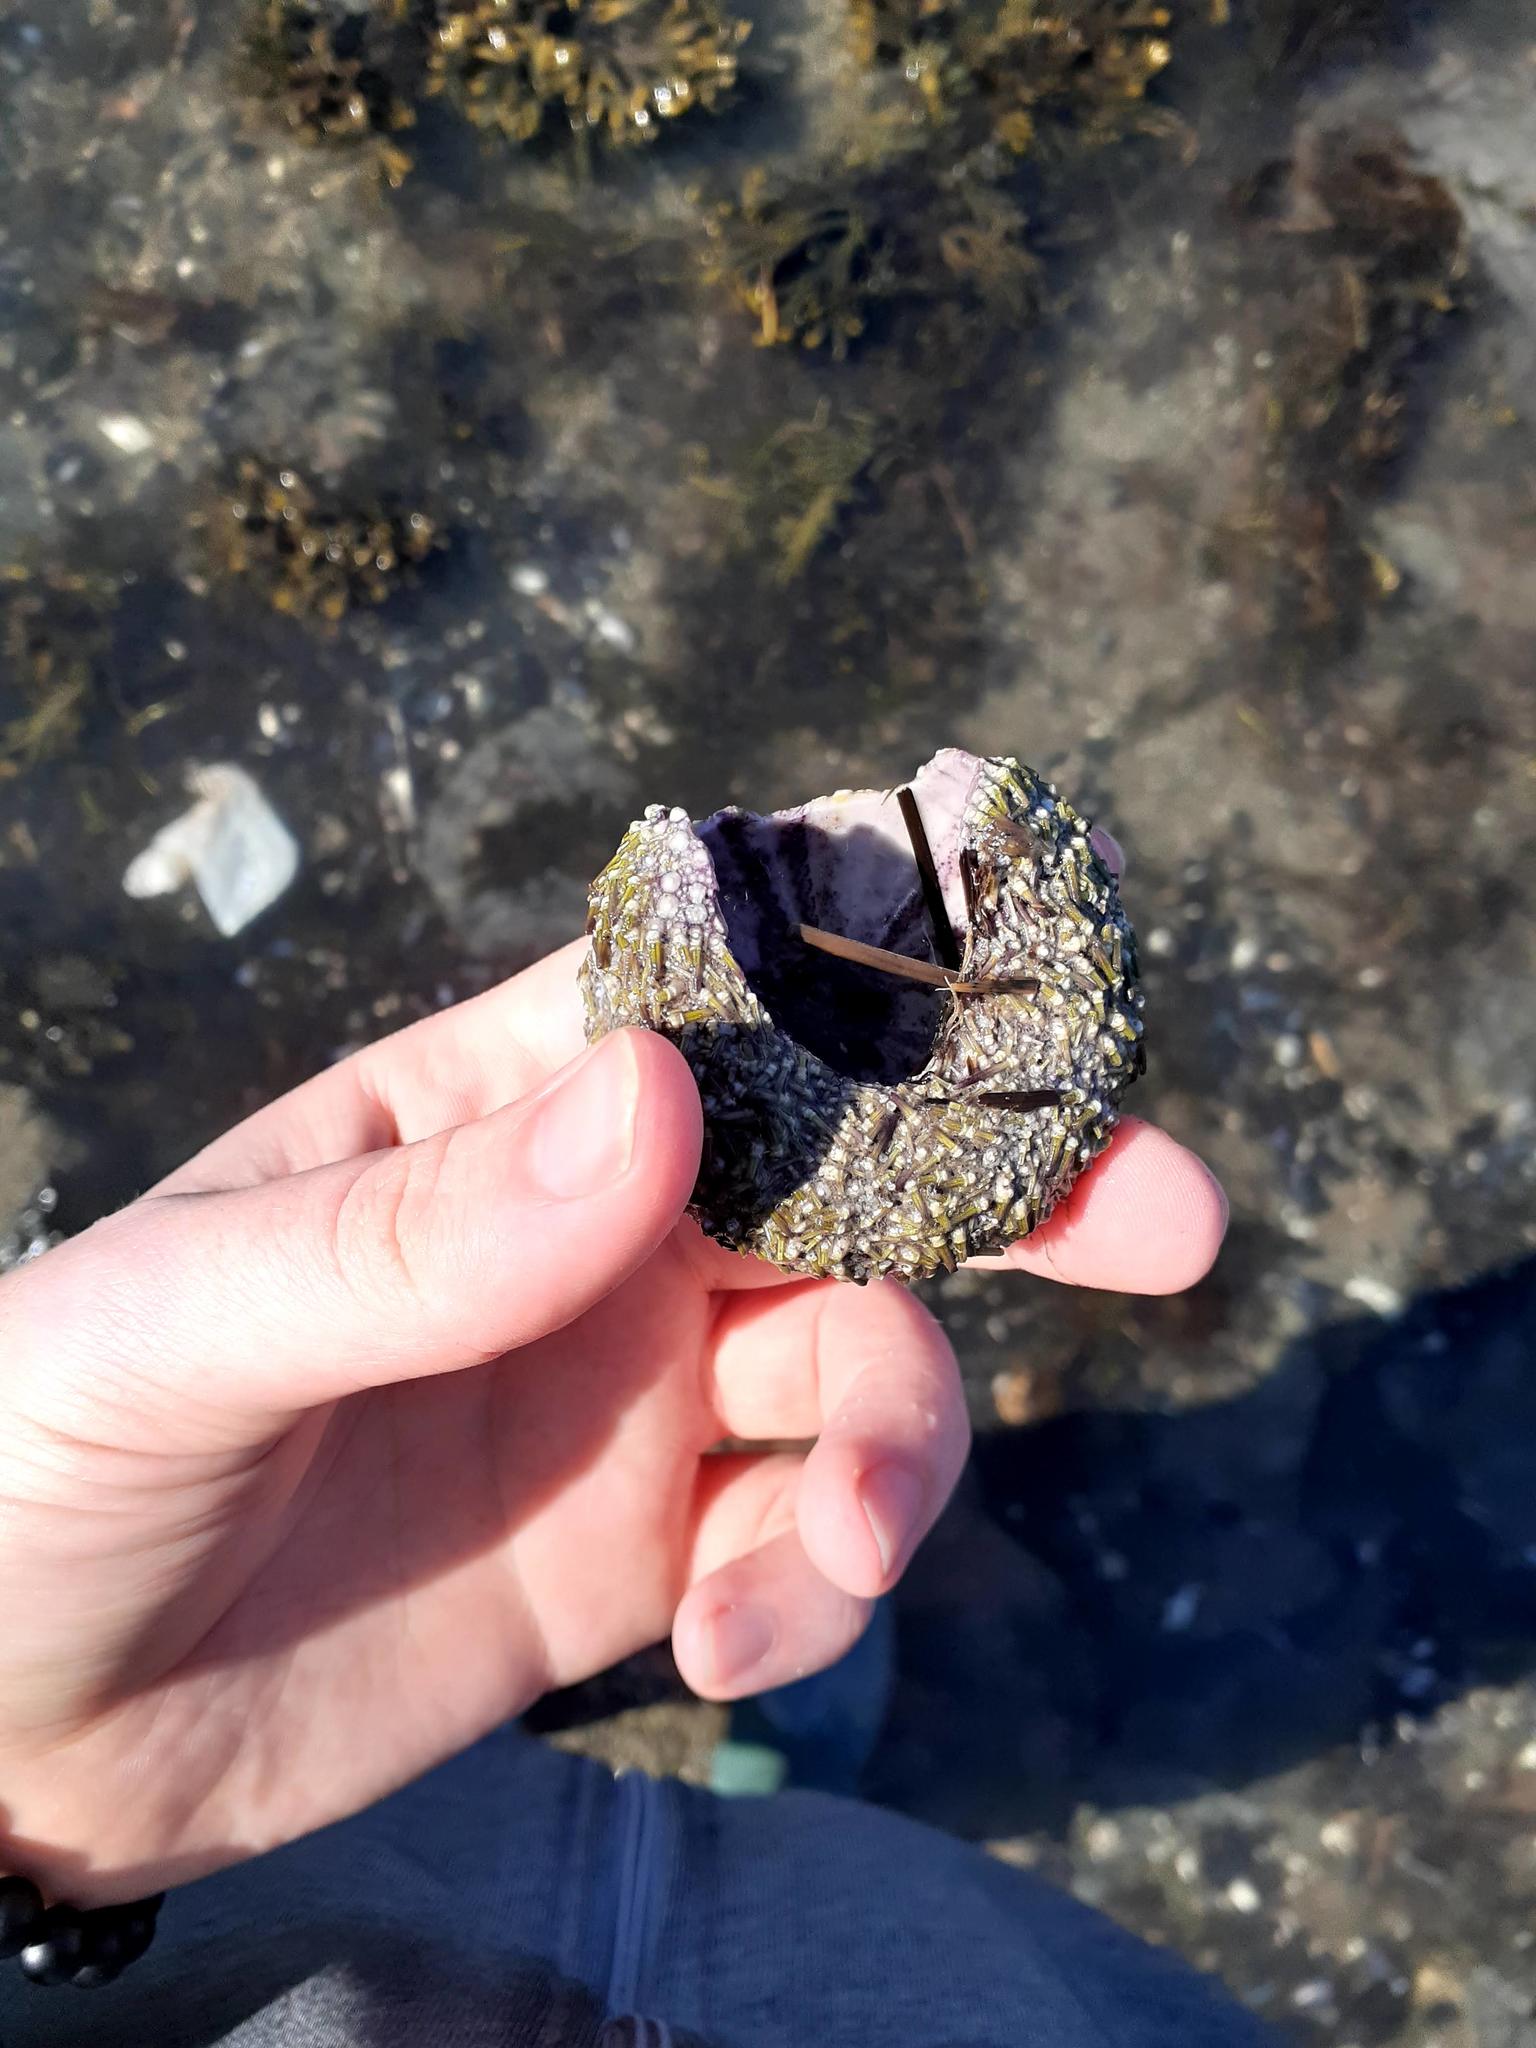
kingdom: Animalia
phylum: Echinodermata
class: Echinoidea
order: Camarodonta
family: Strongylocentrotidae
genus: Strongylocentrotus
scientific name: Strongylocentrotus droebachiensis
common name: Northern sea urchin
